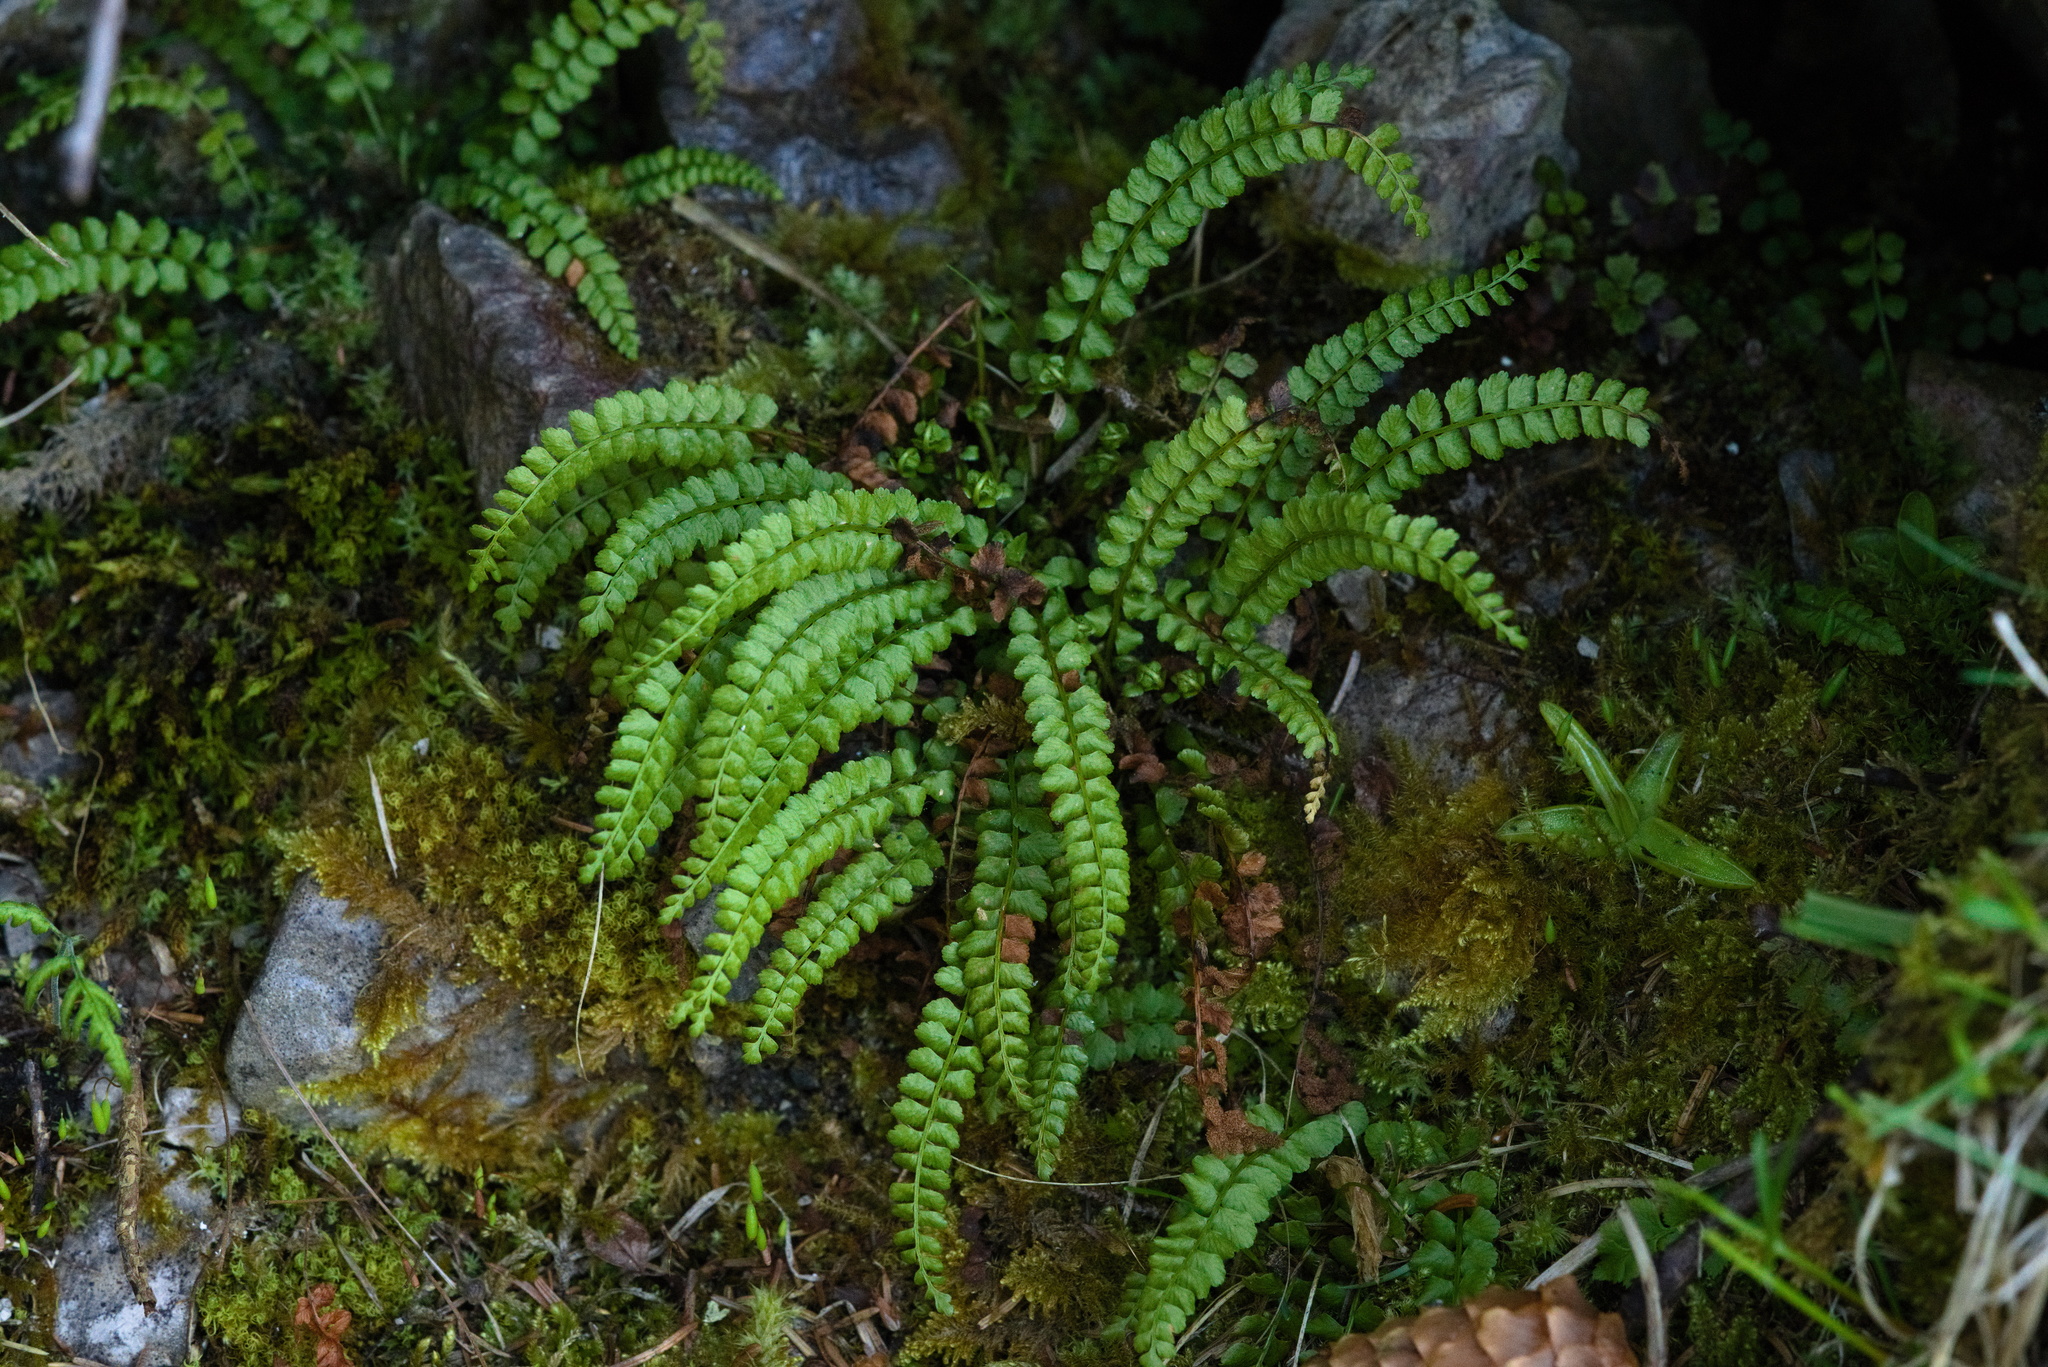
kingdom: Plantae
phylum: Tracheophyta
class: Polypodiopsida
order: Polypodiales
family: Aspleniaceae
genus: Asplenium
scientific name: Asplenium viride
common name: Green spleenwort
